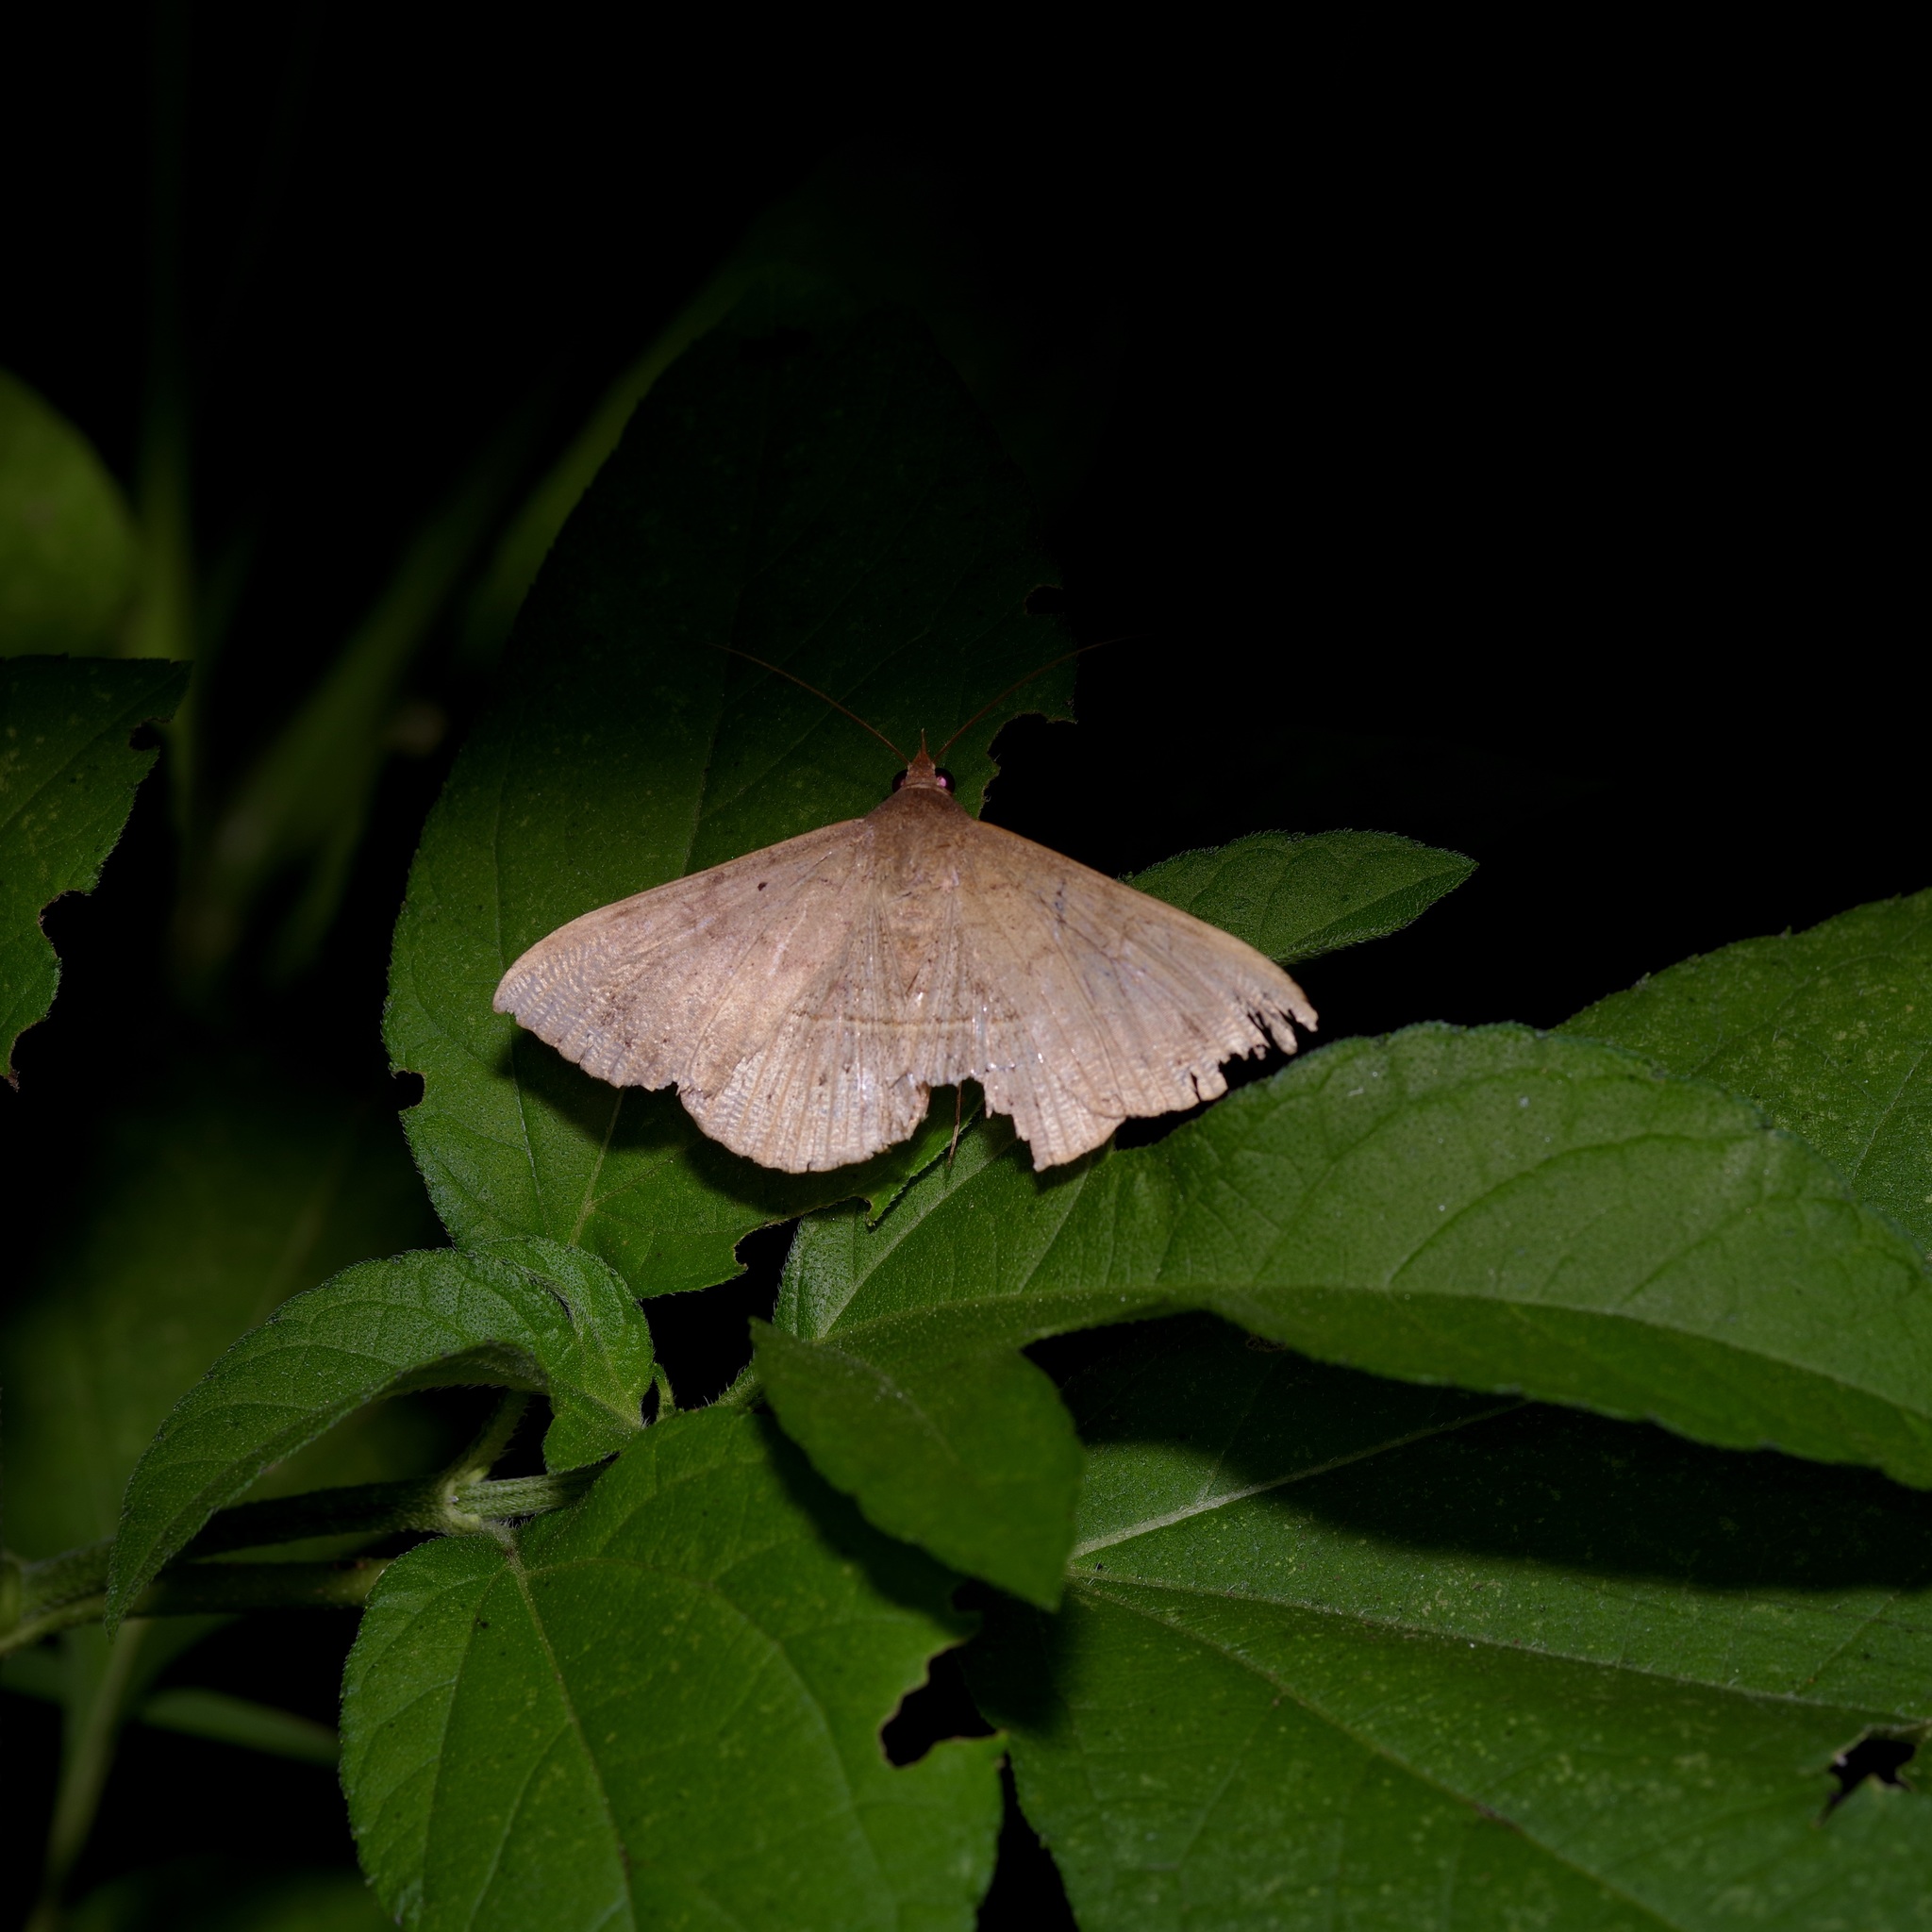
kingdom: Animalia
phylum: Arthropoda
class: Insecta
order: Lepidoptera
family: Erebidae
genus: Anticarsia
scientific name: Anticarsia gemmatalis
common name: Cutworm moth
